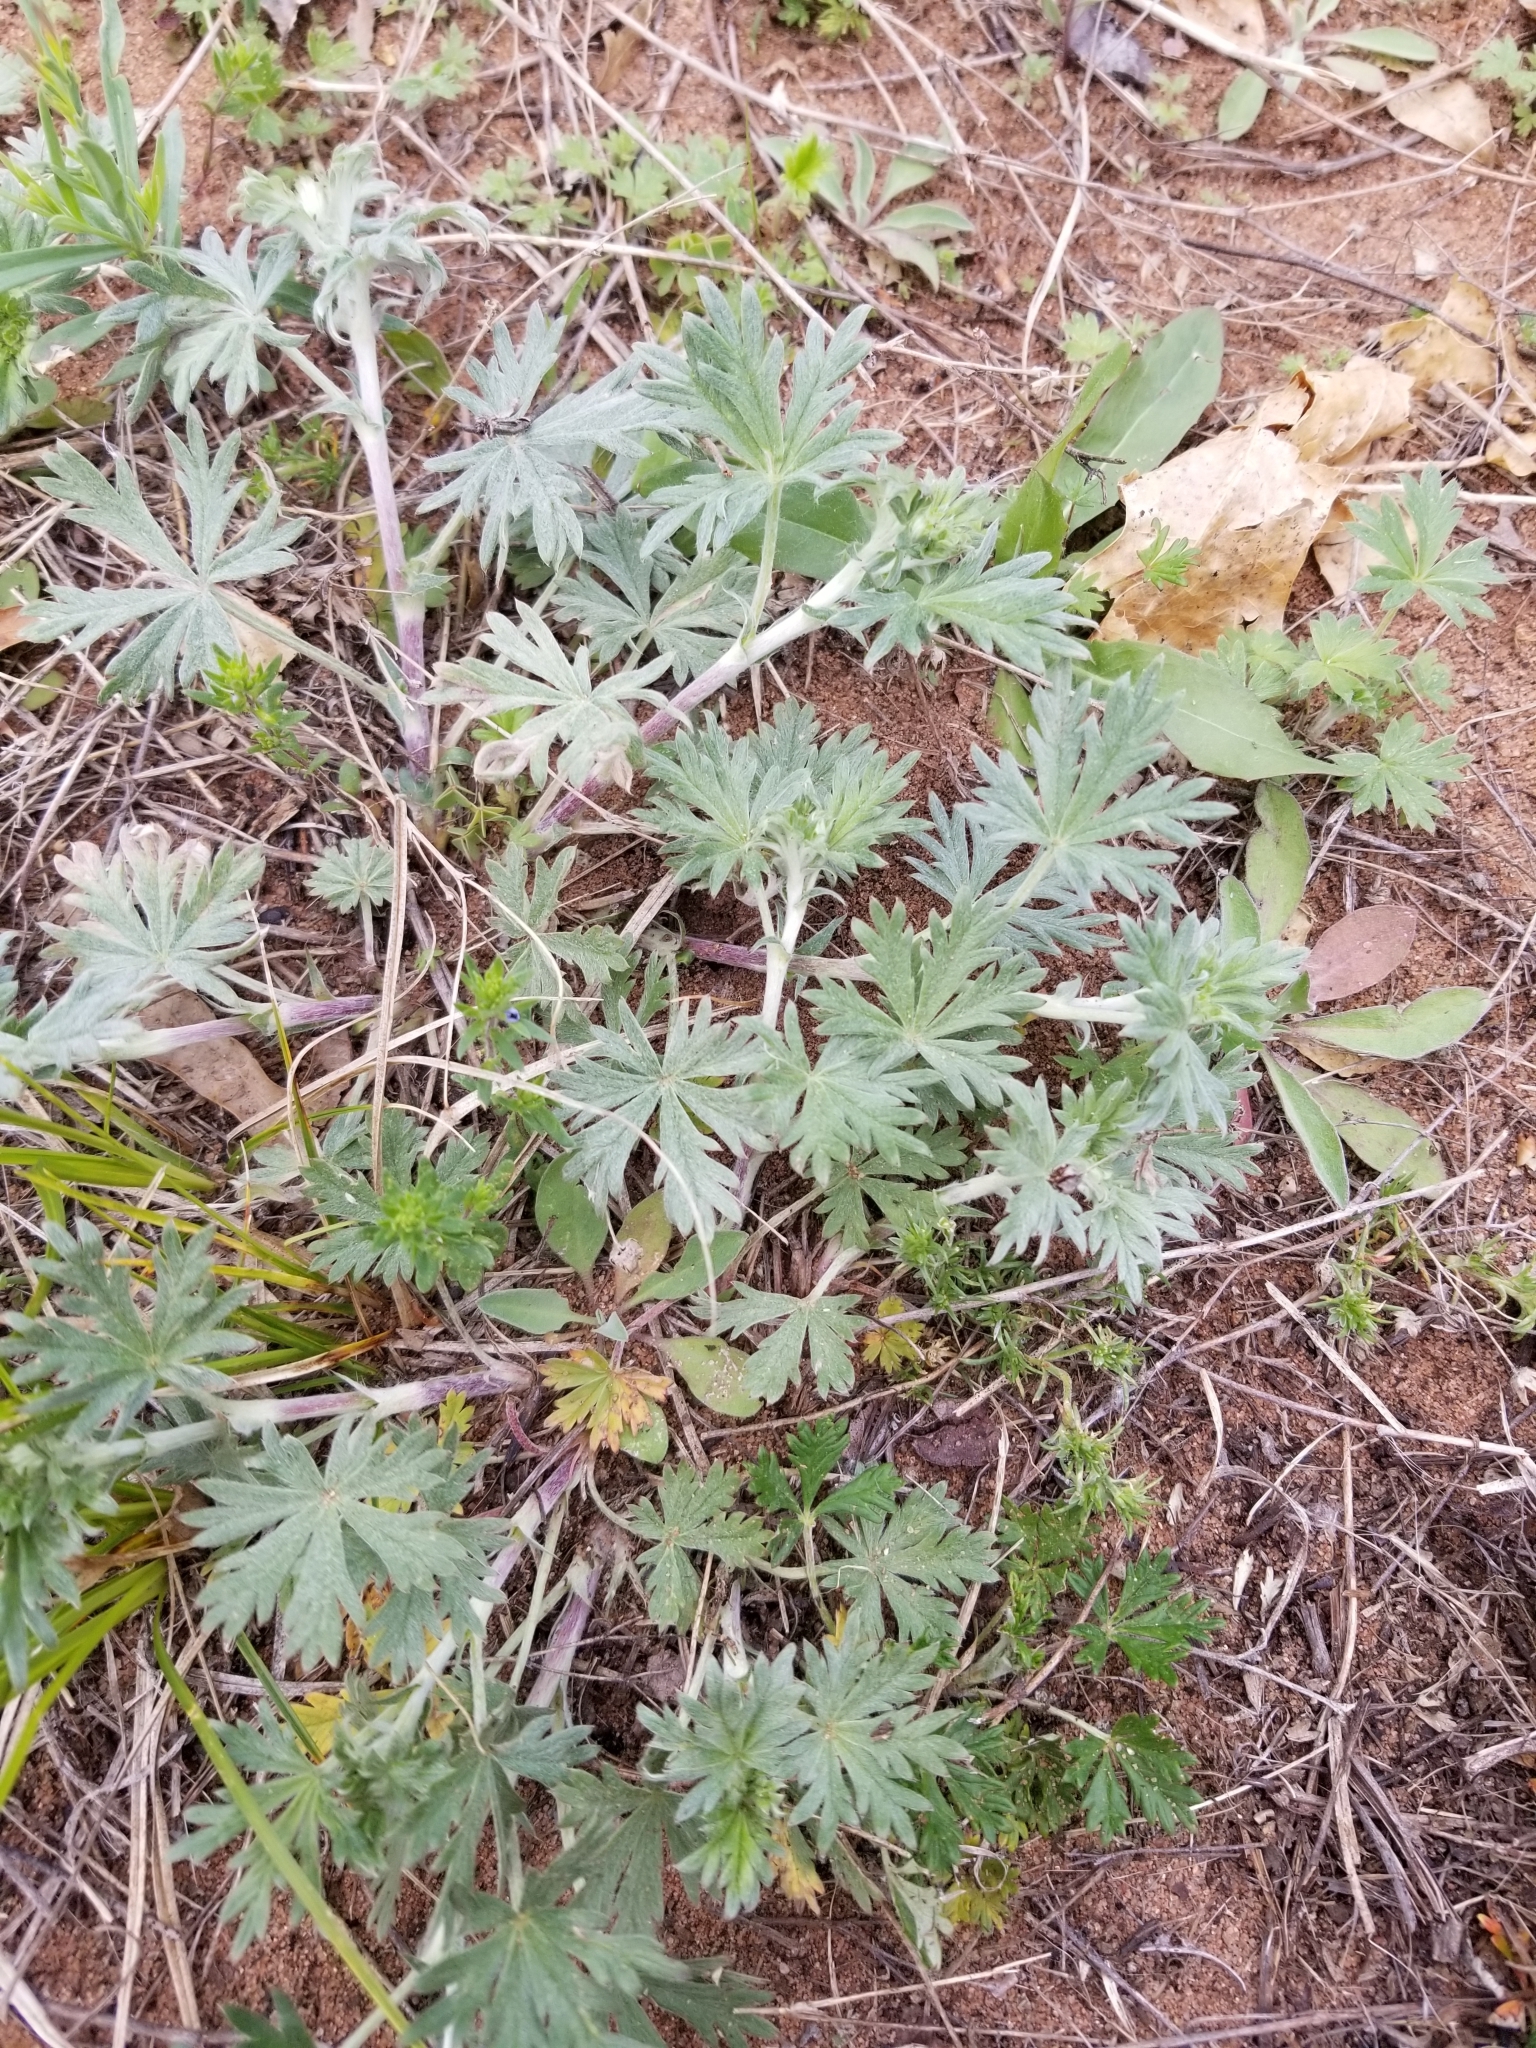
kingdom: Plantae
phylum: Tracheophyta
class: Magnoliopsida
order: Rosales
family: Rosaceae
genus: Potentilla
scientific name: Potentilla argentea
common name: Hoary cinquefoil
